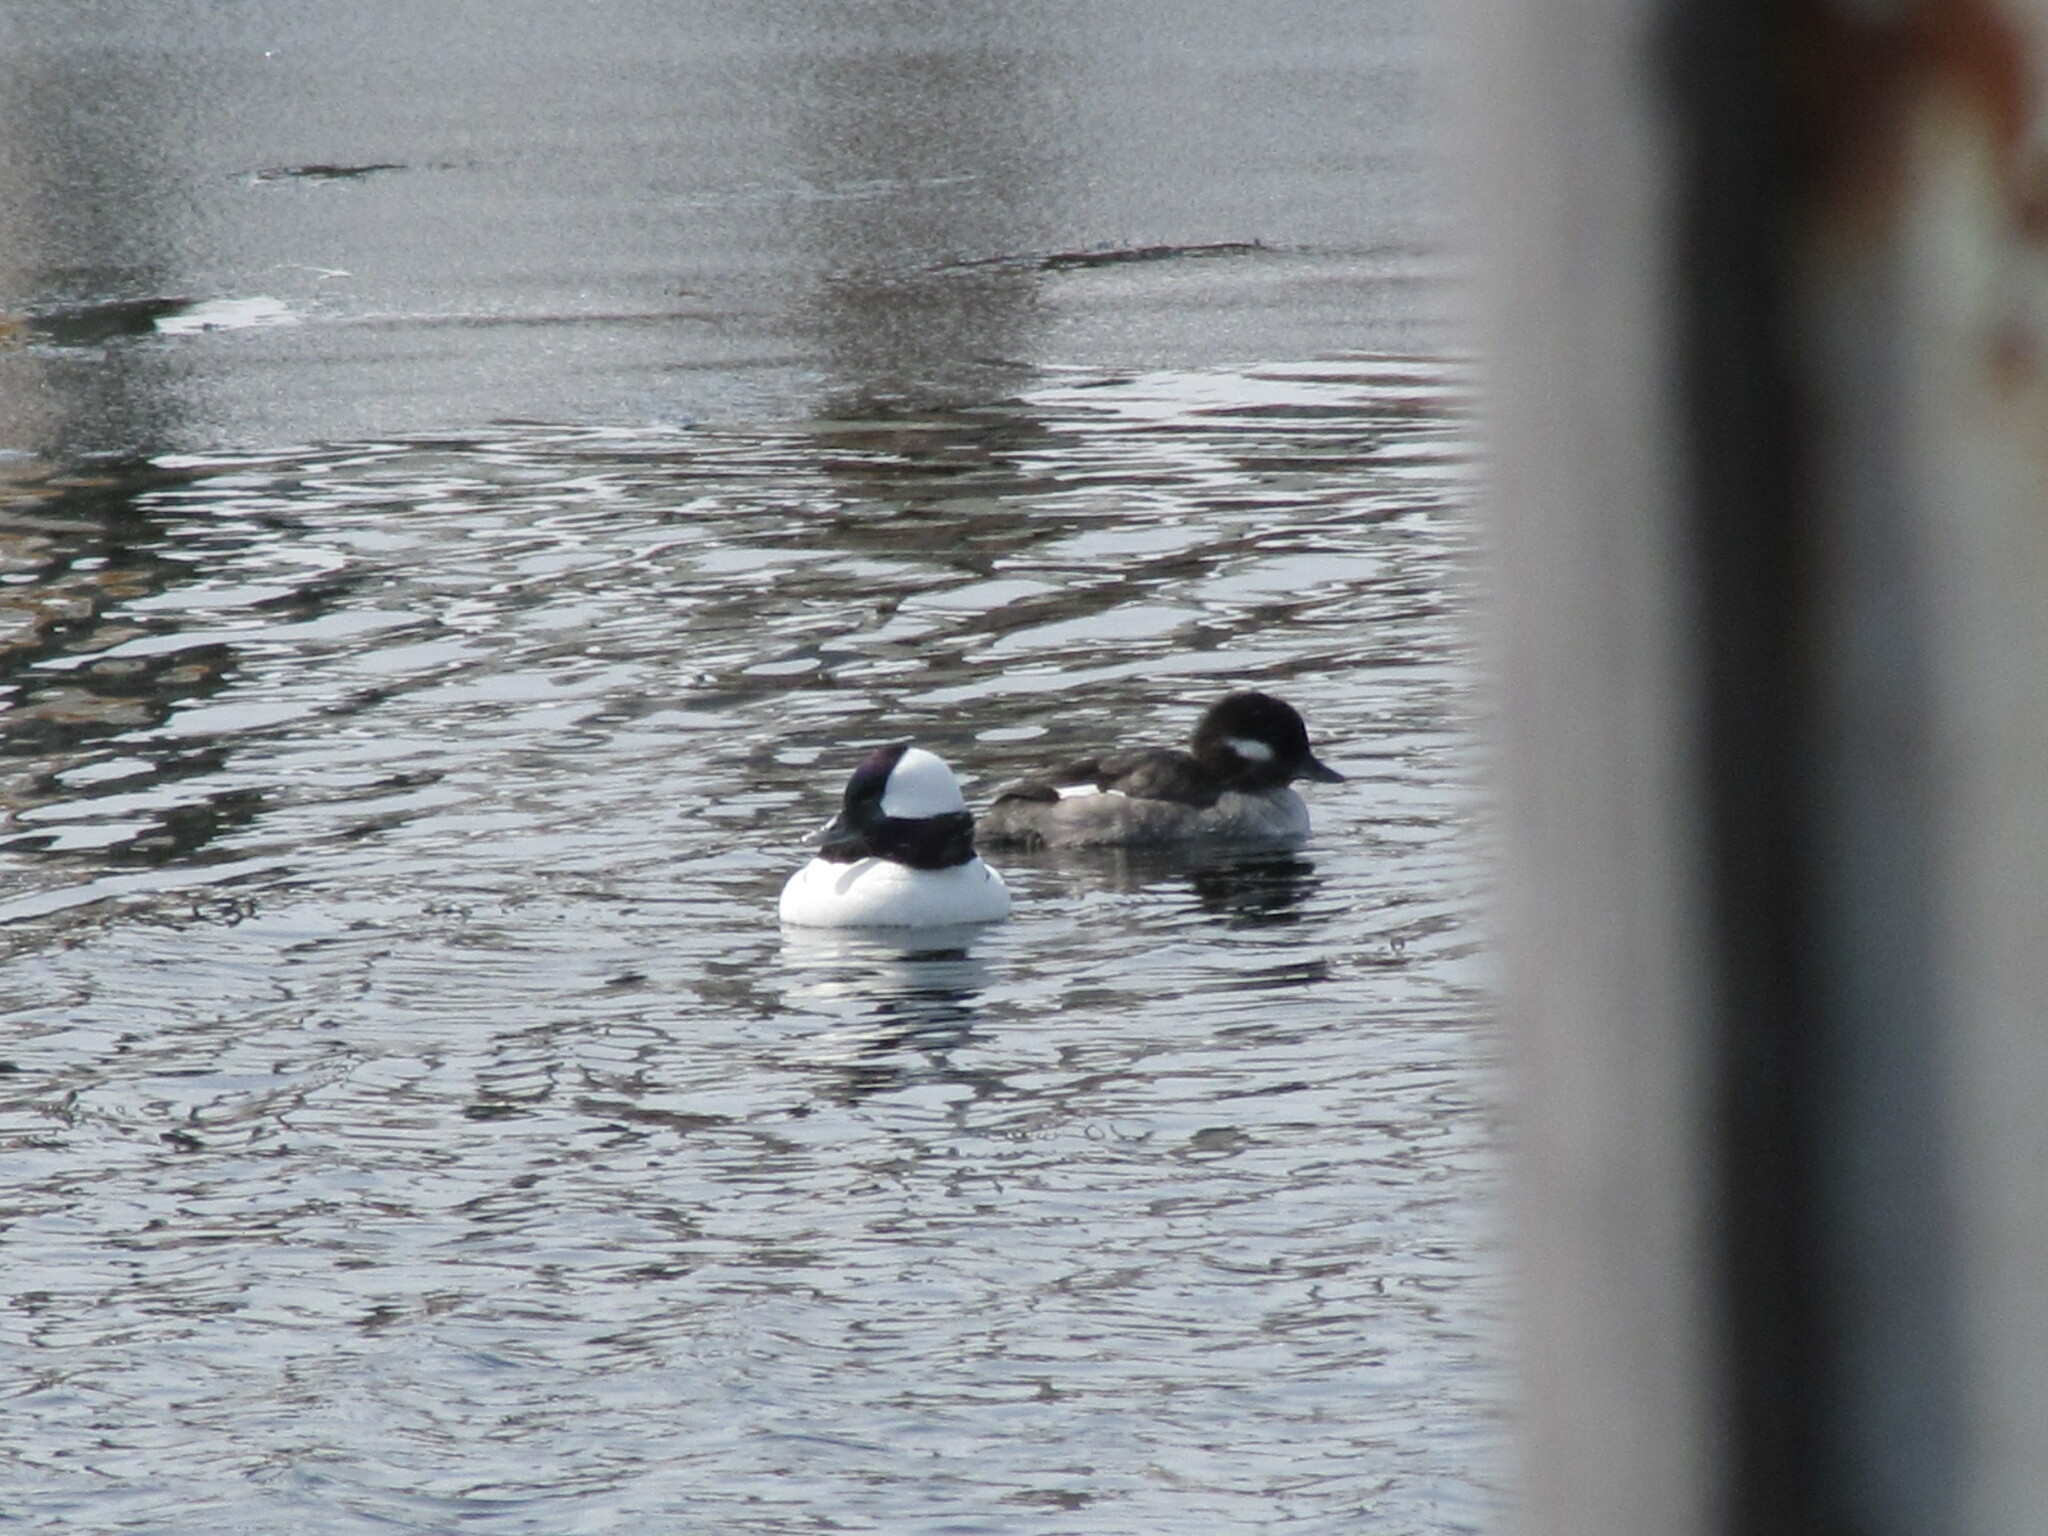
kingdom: Animalia
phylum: Chordata
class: Aves
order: Anseriformes
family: Anatidae
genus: Bucephala
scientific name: Bucephala albeola
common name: Bufflehead
